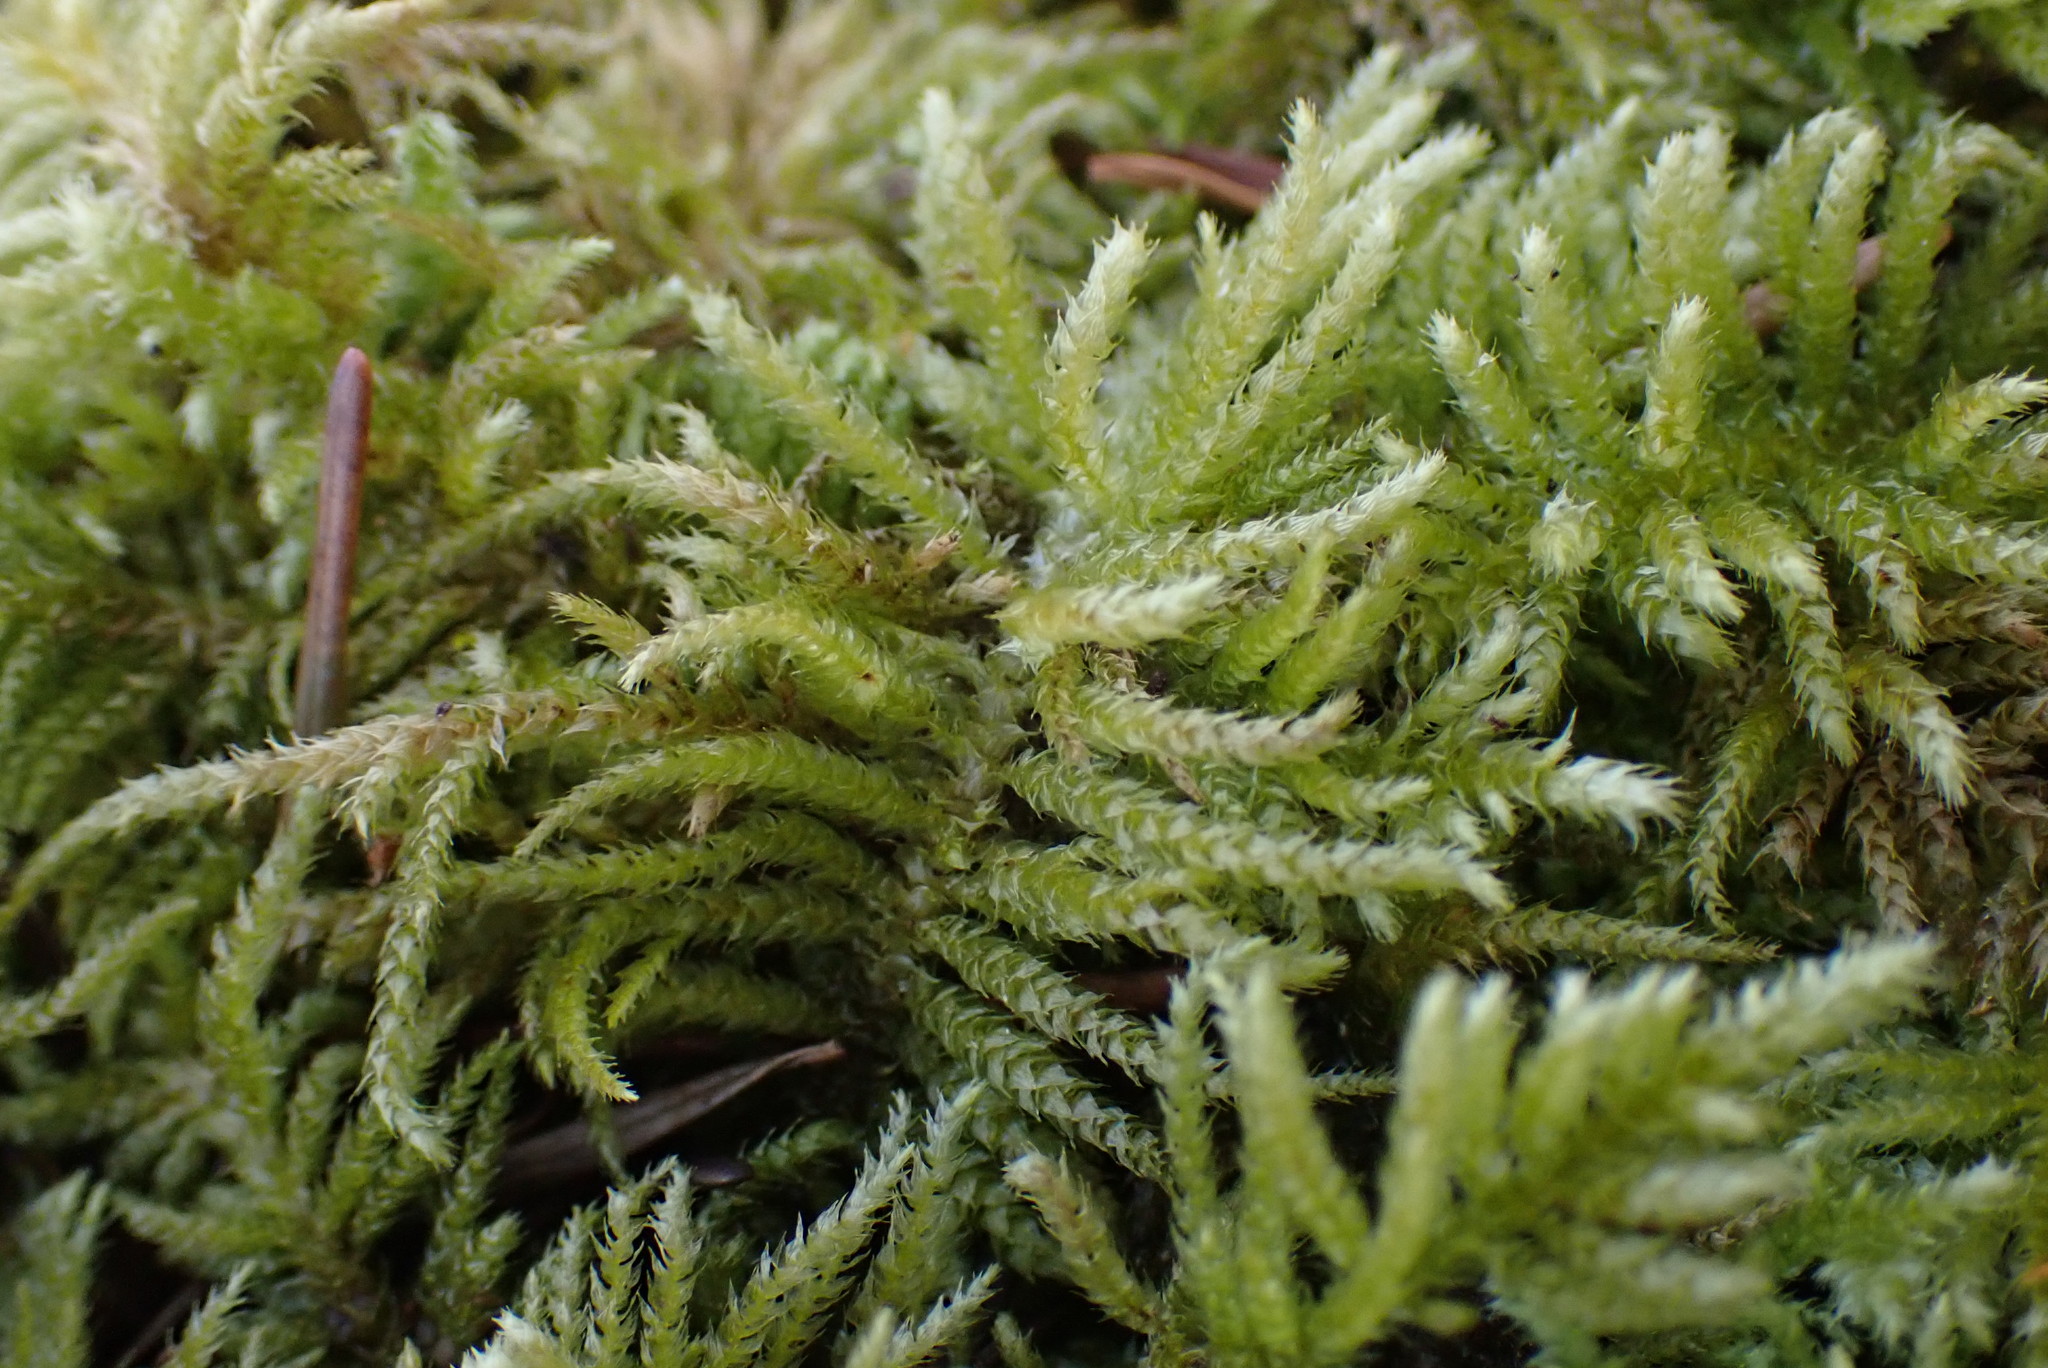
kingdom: Plantae
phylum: Bryophyta
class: Bryopsida
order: Hypnales
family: Brachytheciaceae
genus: Kindbergia
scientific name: Kindbergia oregana
